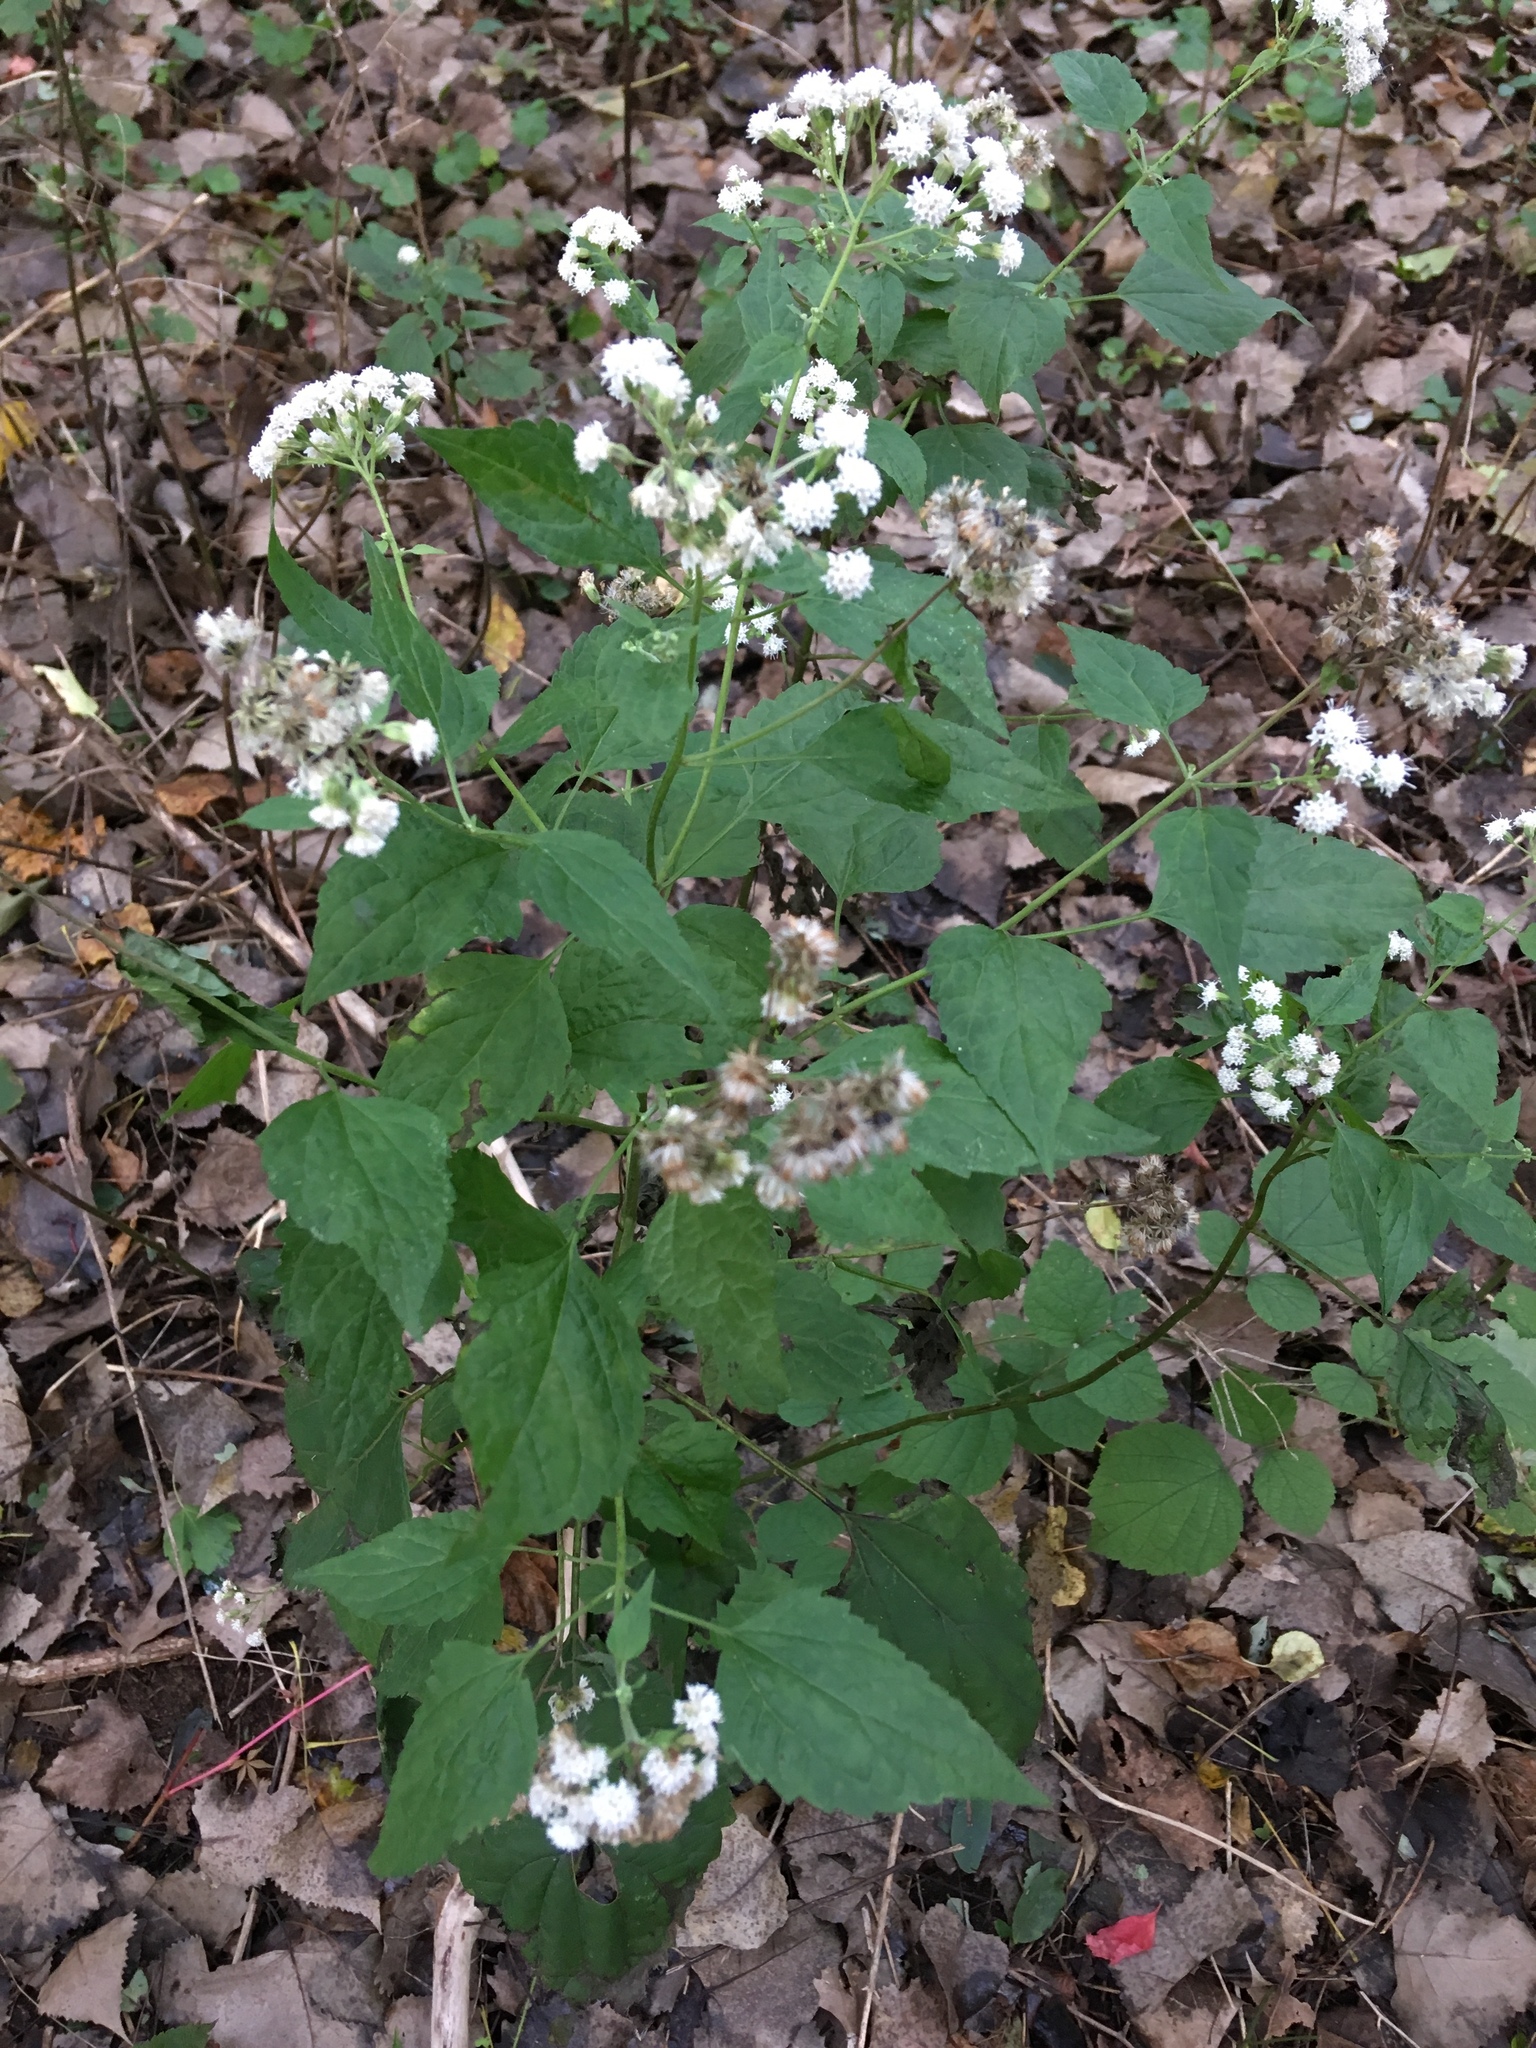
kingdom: Plantae
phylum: Tracheophyta
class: Magnoliopsida
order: Asterales
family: Asteraceae
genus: Ageratina
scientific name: Ageratina altissima
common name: White snakeroot
